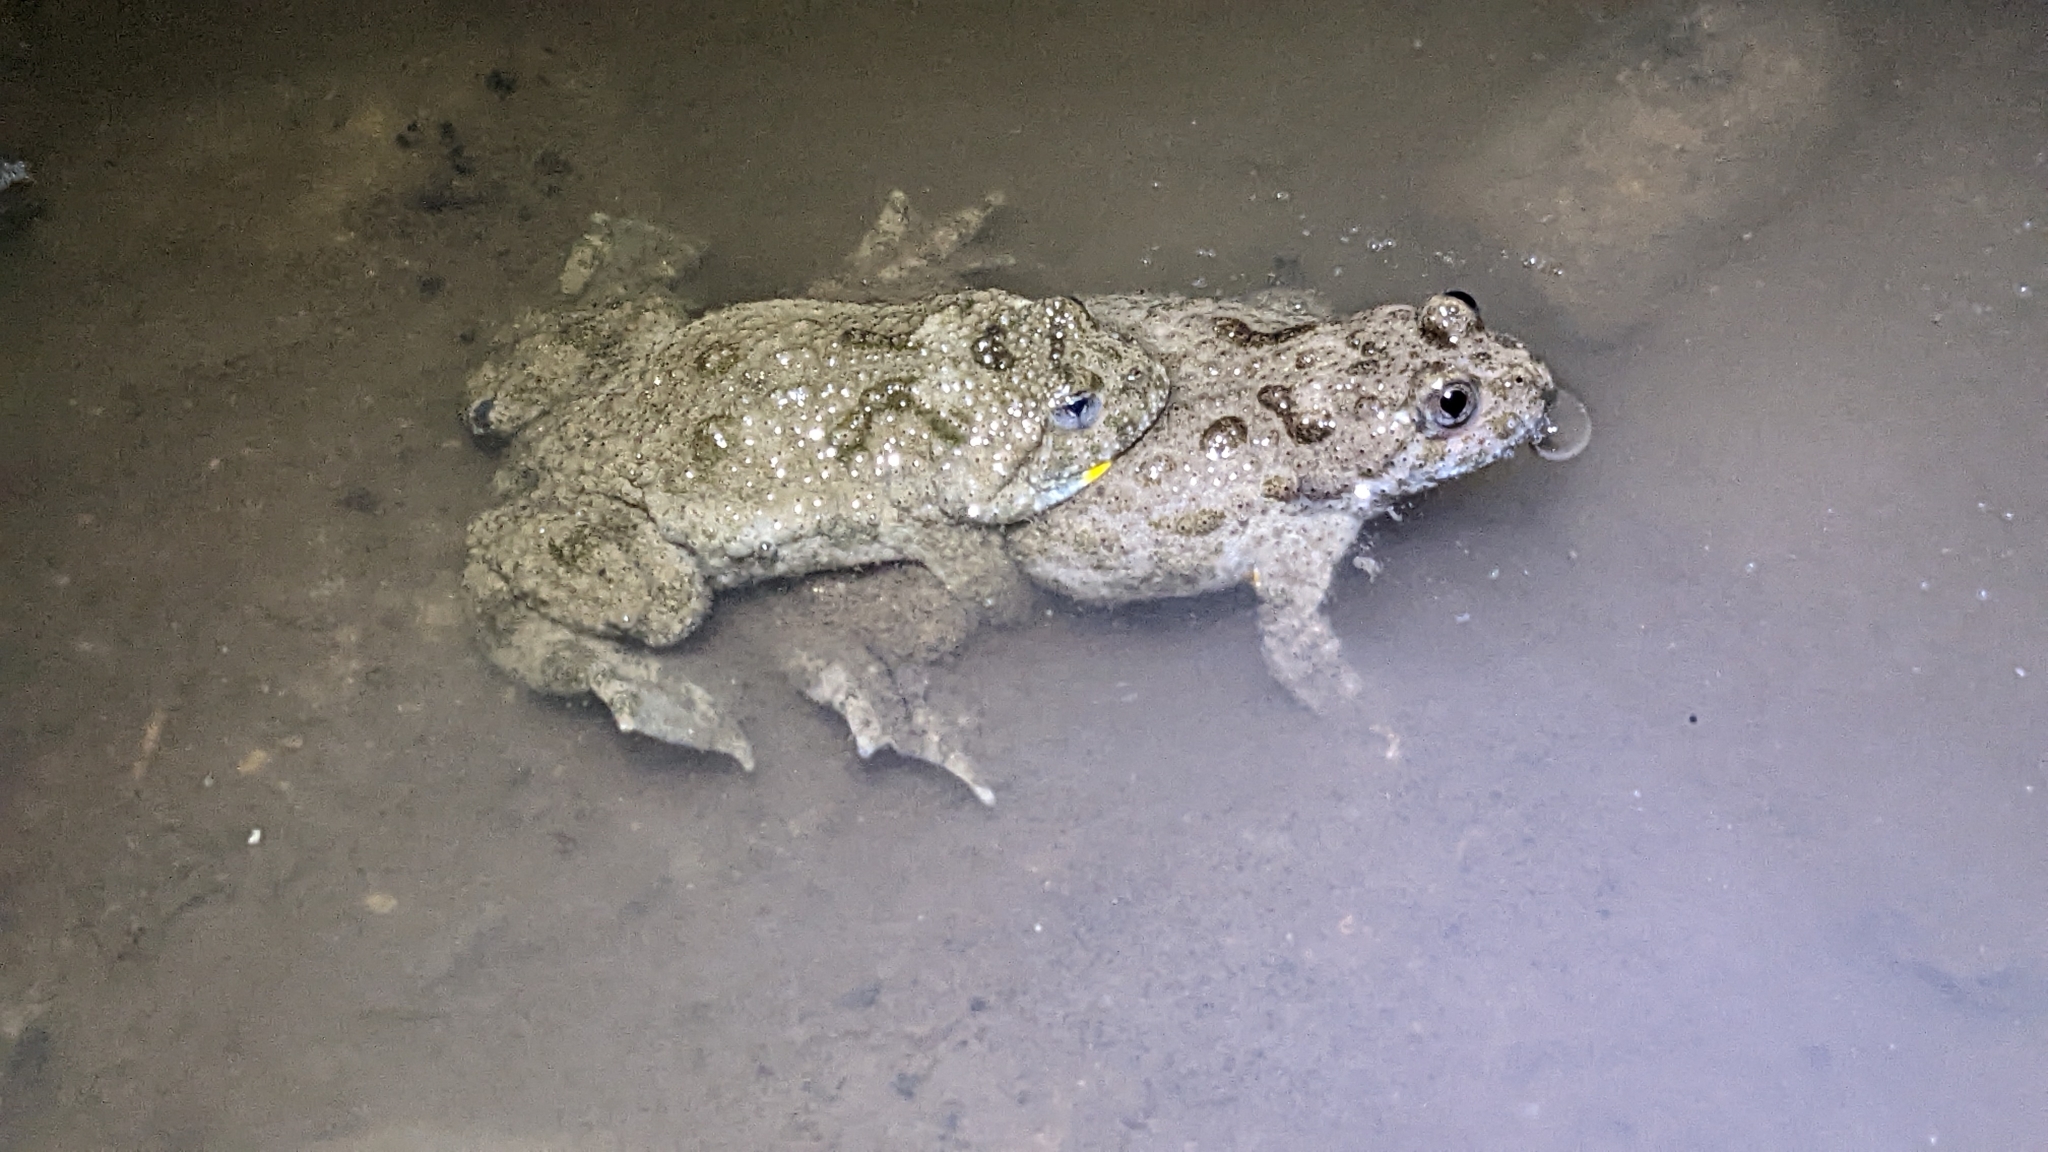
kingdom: Animalia
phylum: Chordata
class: Amphibia
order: Anura
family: Bombinatoridae
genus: Bombina
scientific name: Bombina variegata
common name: Yellow-bellied toad
